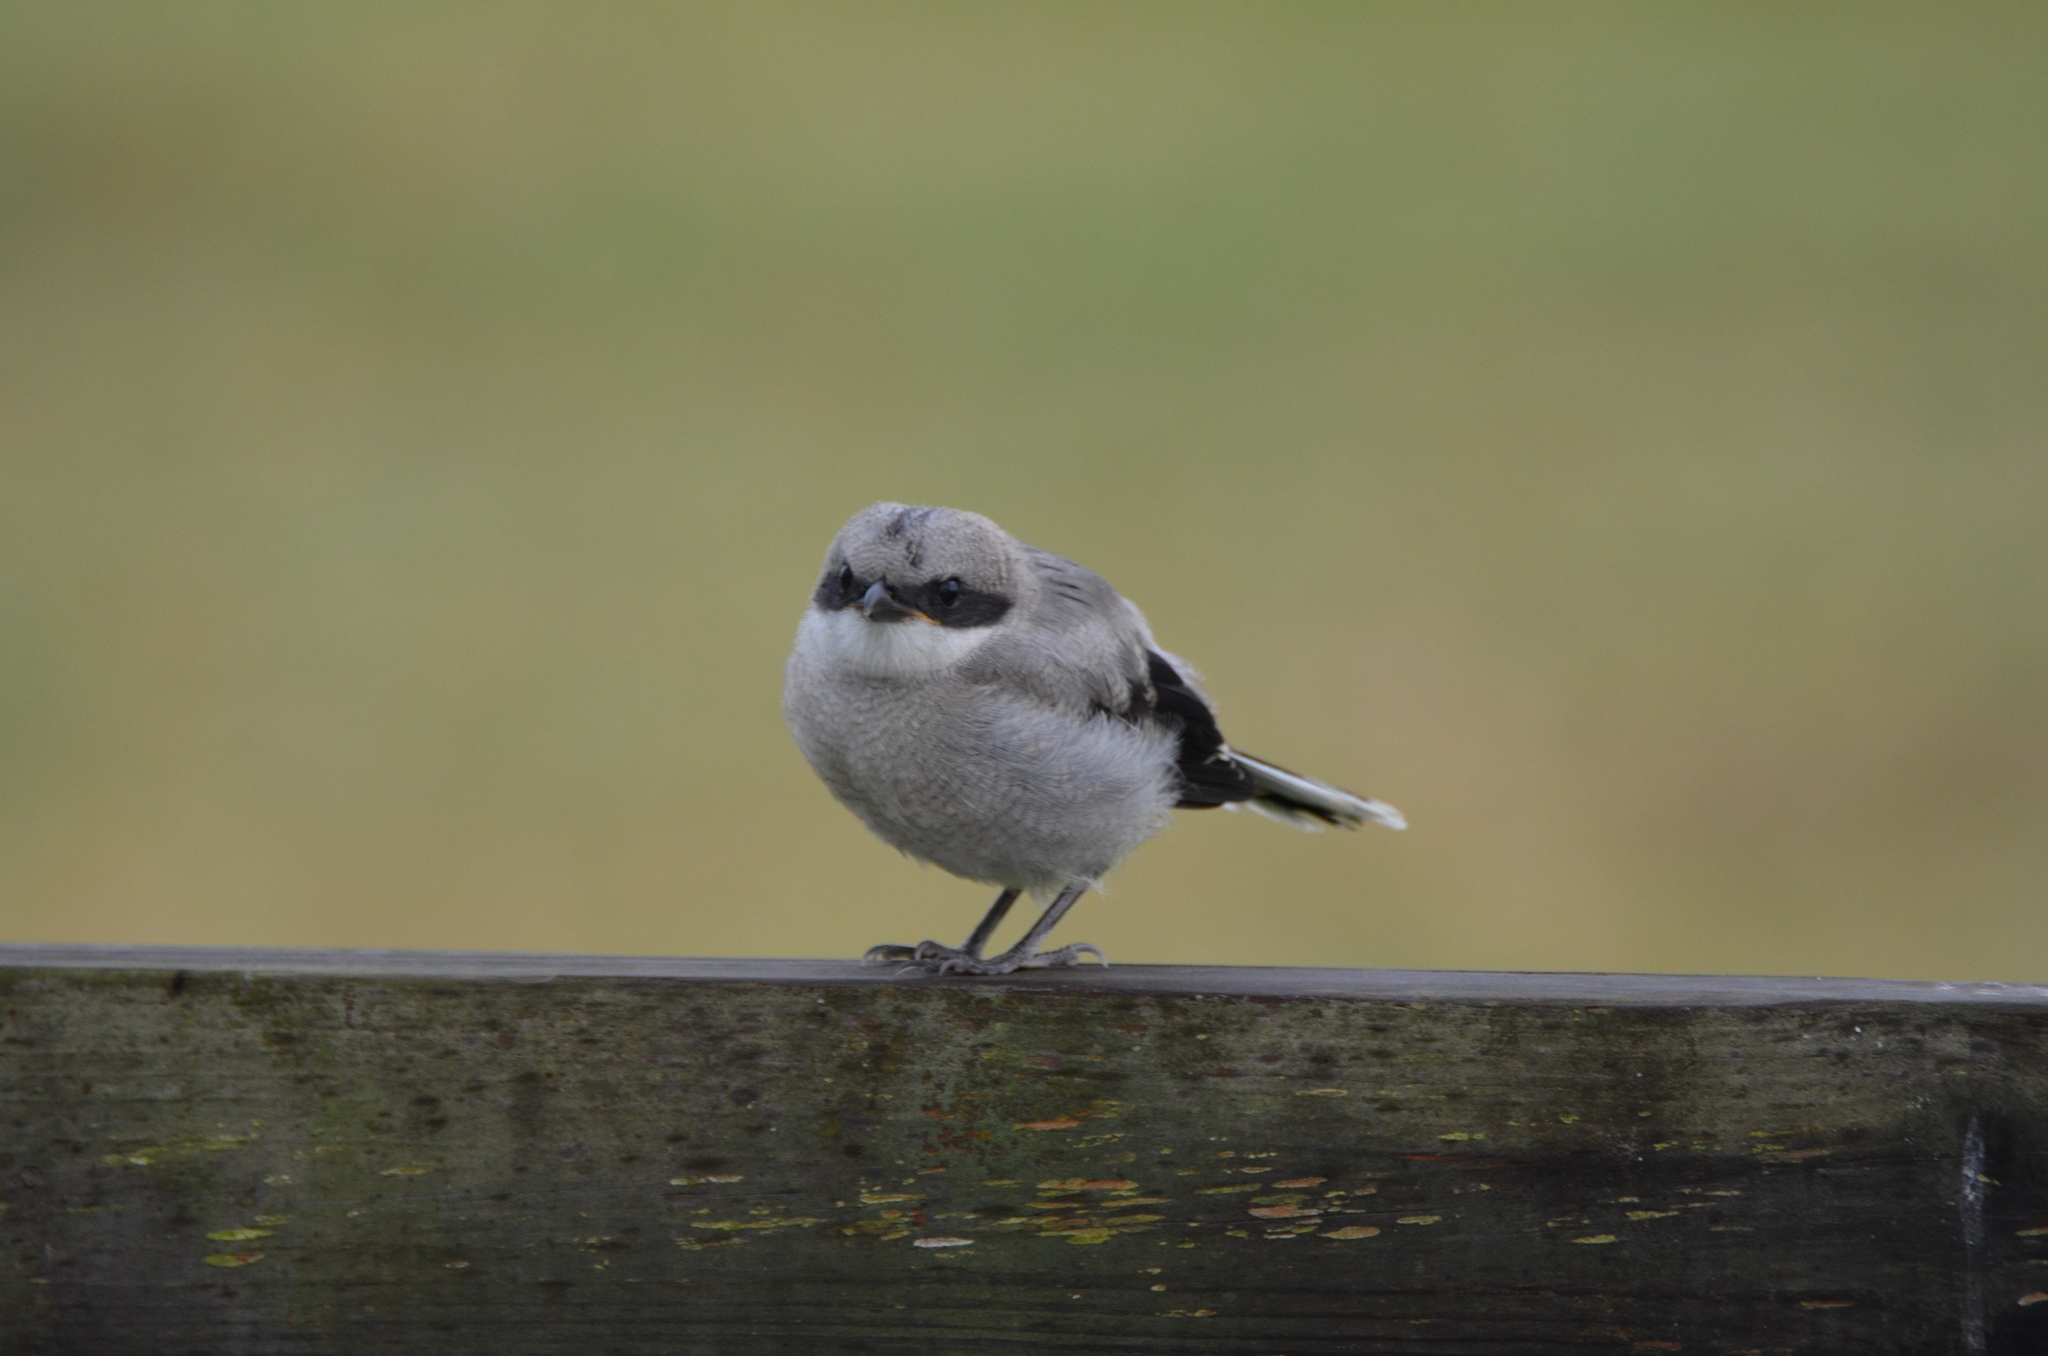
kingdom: Animalia
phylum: Chordata
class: Aves
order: Passeriformes
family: Laniidae
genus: Lanius
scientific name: Lanius ludovicianus
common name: Loggerhead shrike
